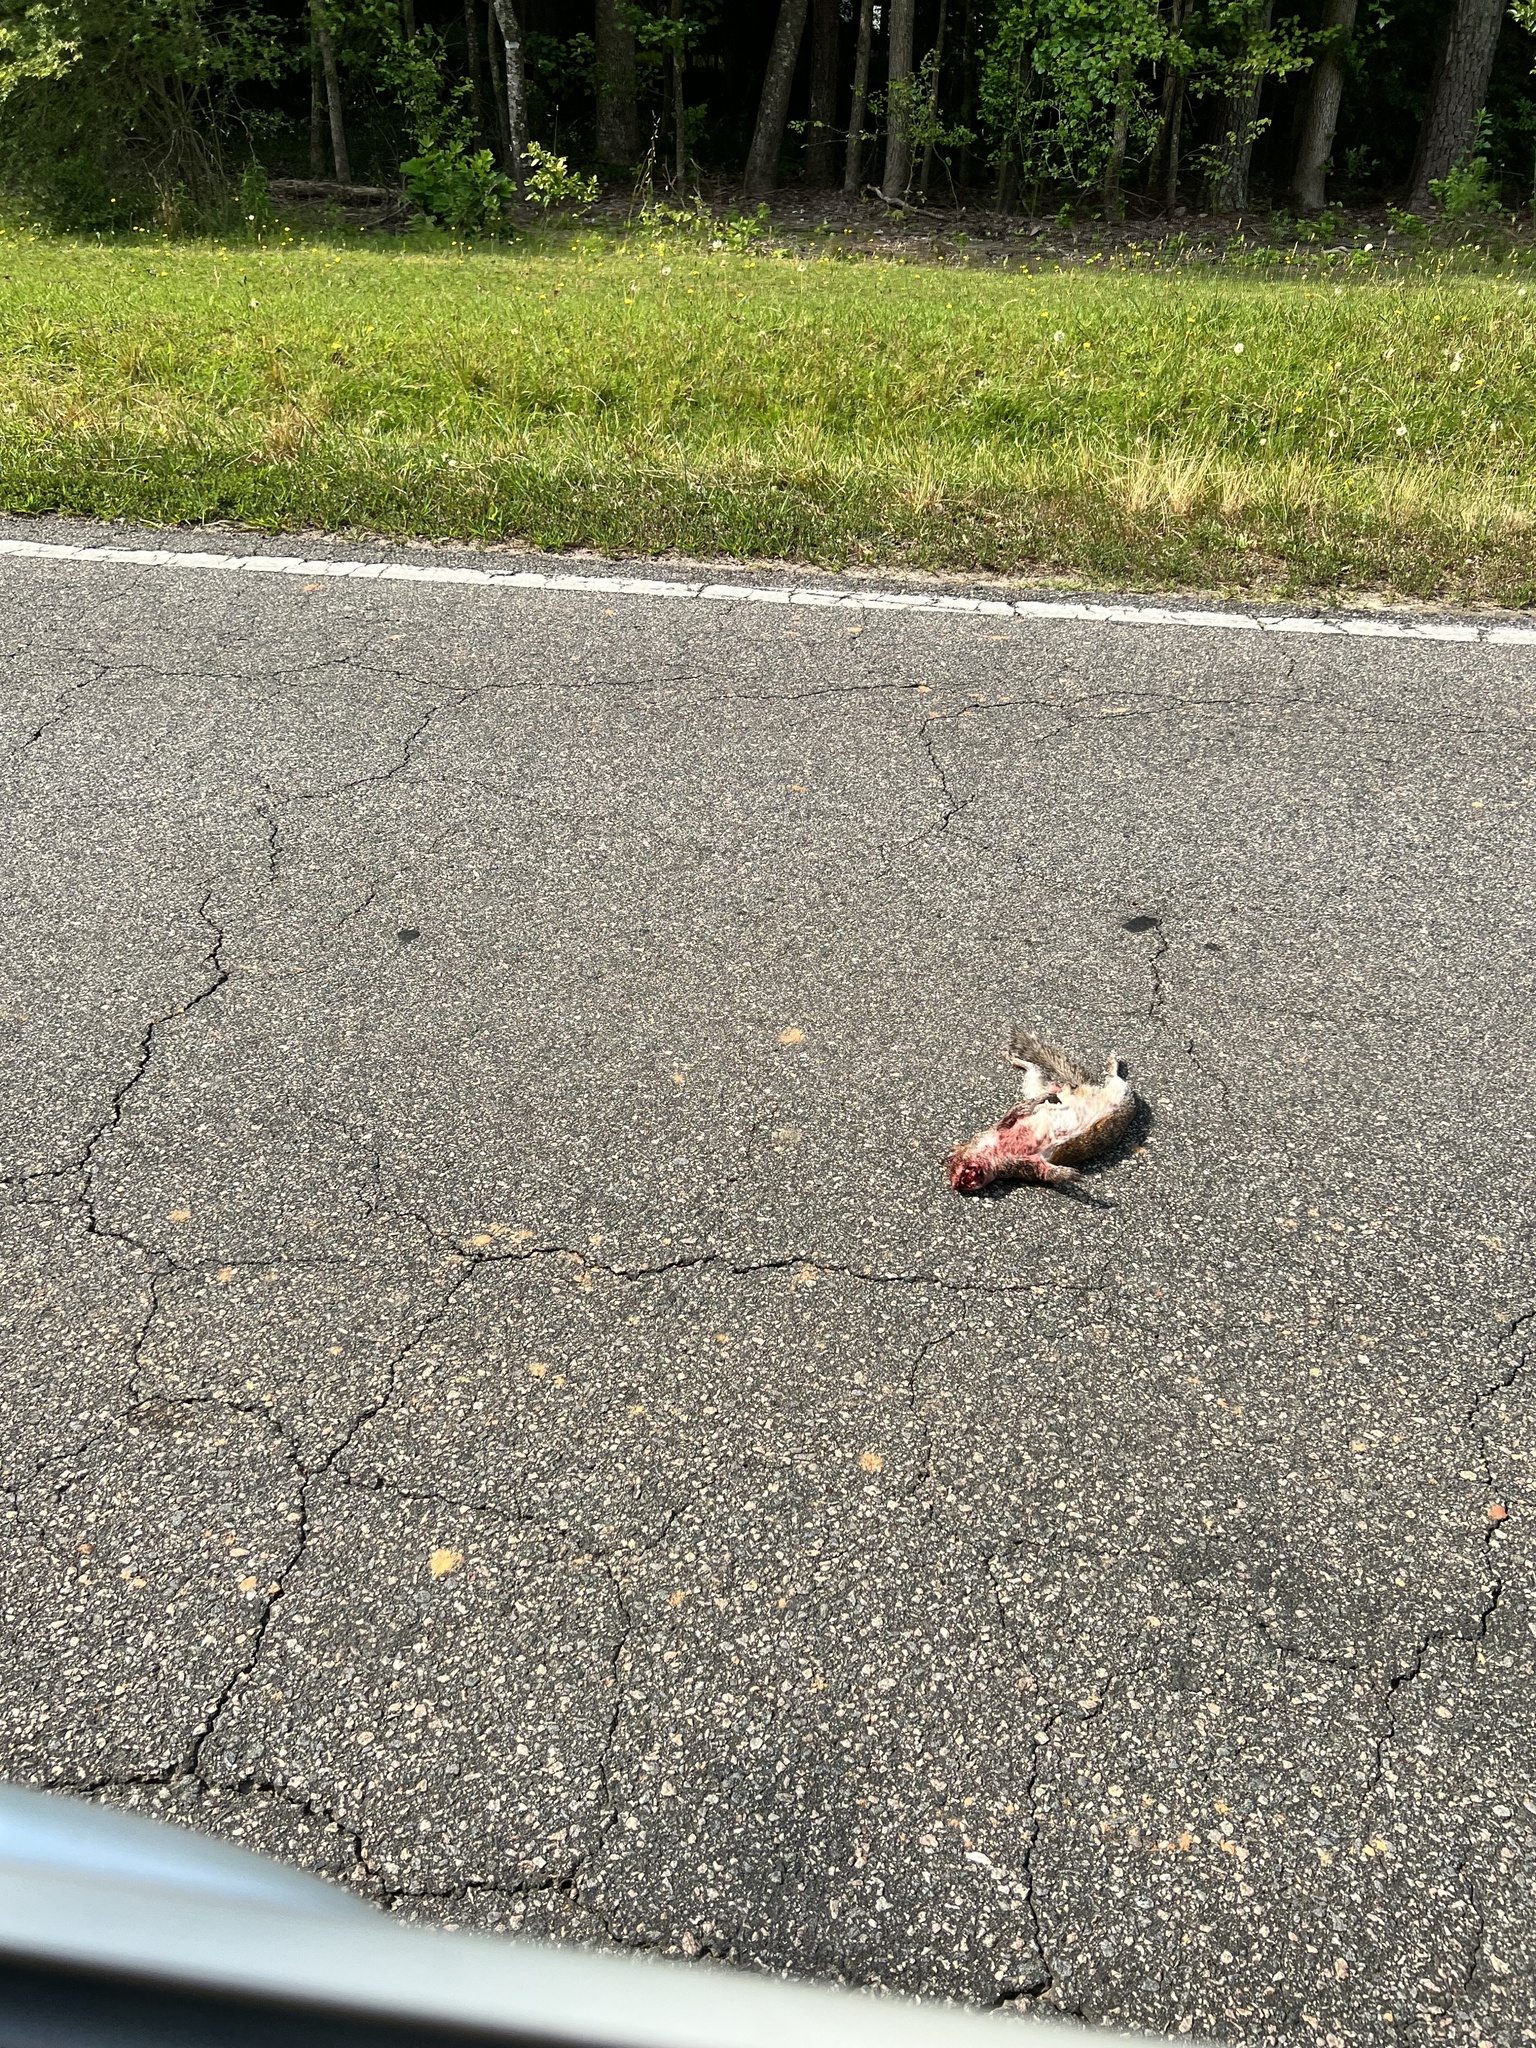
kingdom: Animalia
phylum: Chordata
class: Mammalia
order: Rodentia
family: Sciuridae
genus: Sciurus
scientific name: Sciurus carolinensis
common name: Eastern gray squirrel
